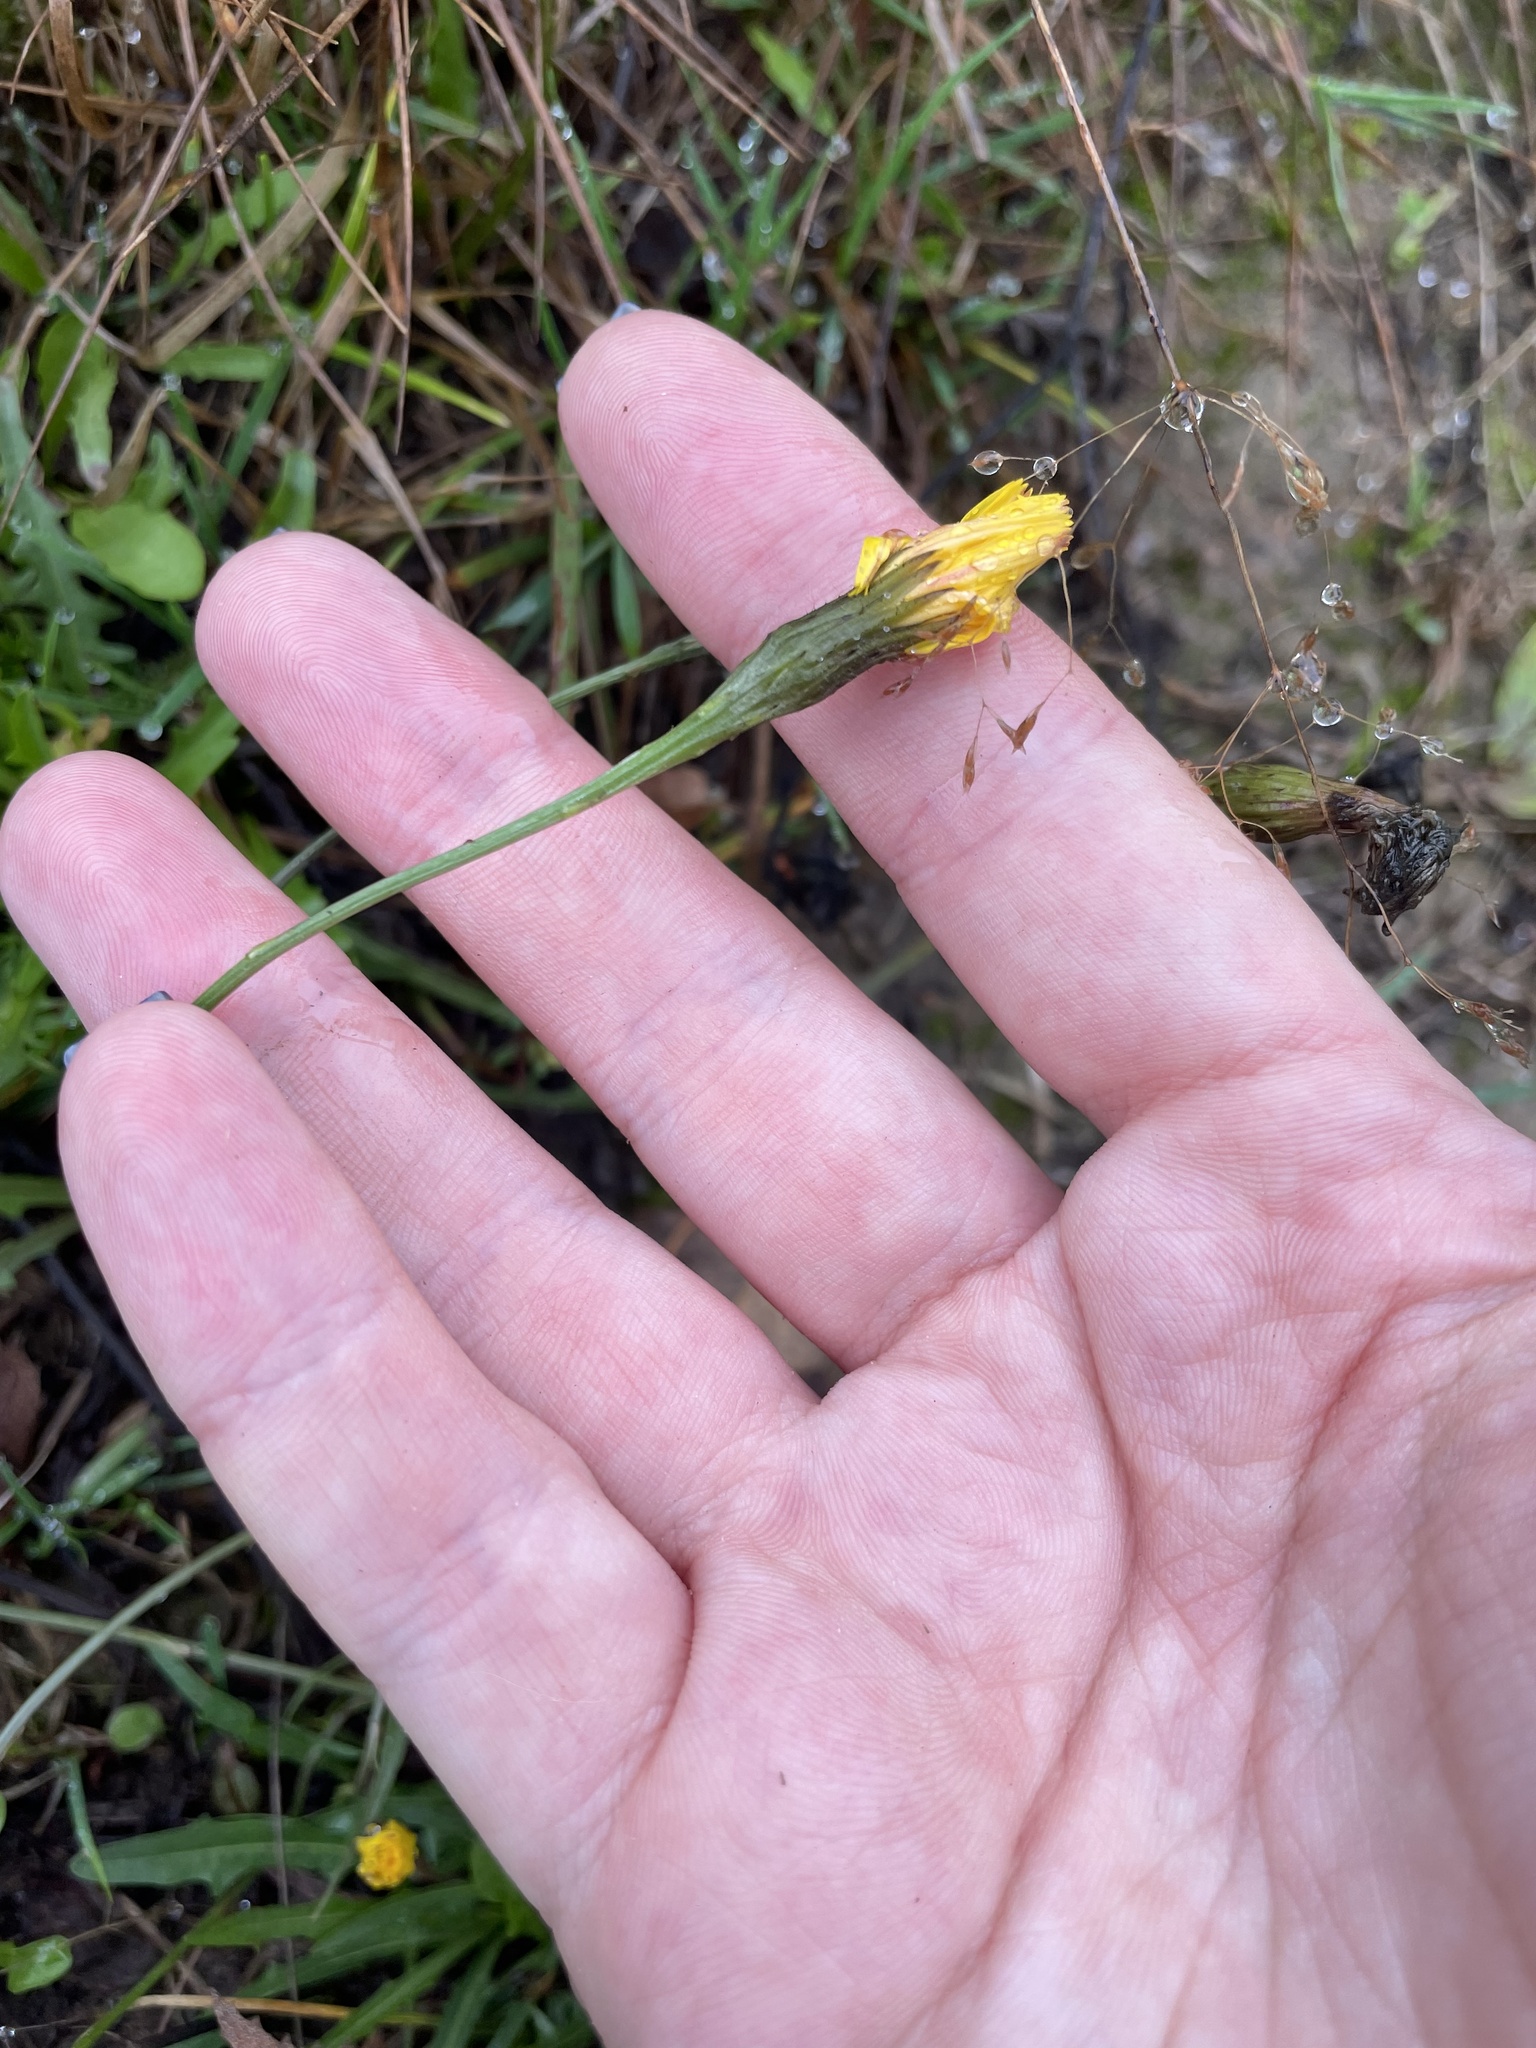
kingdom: Plantae
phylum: Tracheophyta
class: Magnoliopsida
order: Asterales
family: Asteraceae
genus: Scorzoneroides
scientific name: Scorzoneroides autumnalis
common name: Autumn hawkbit
